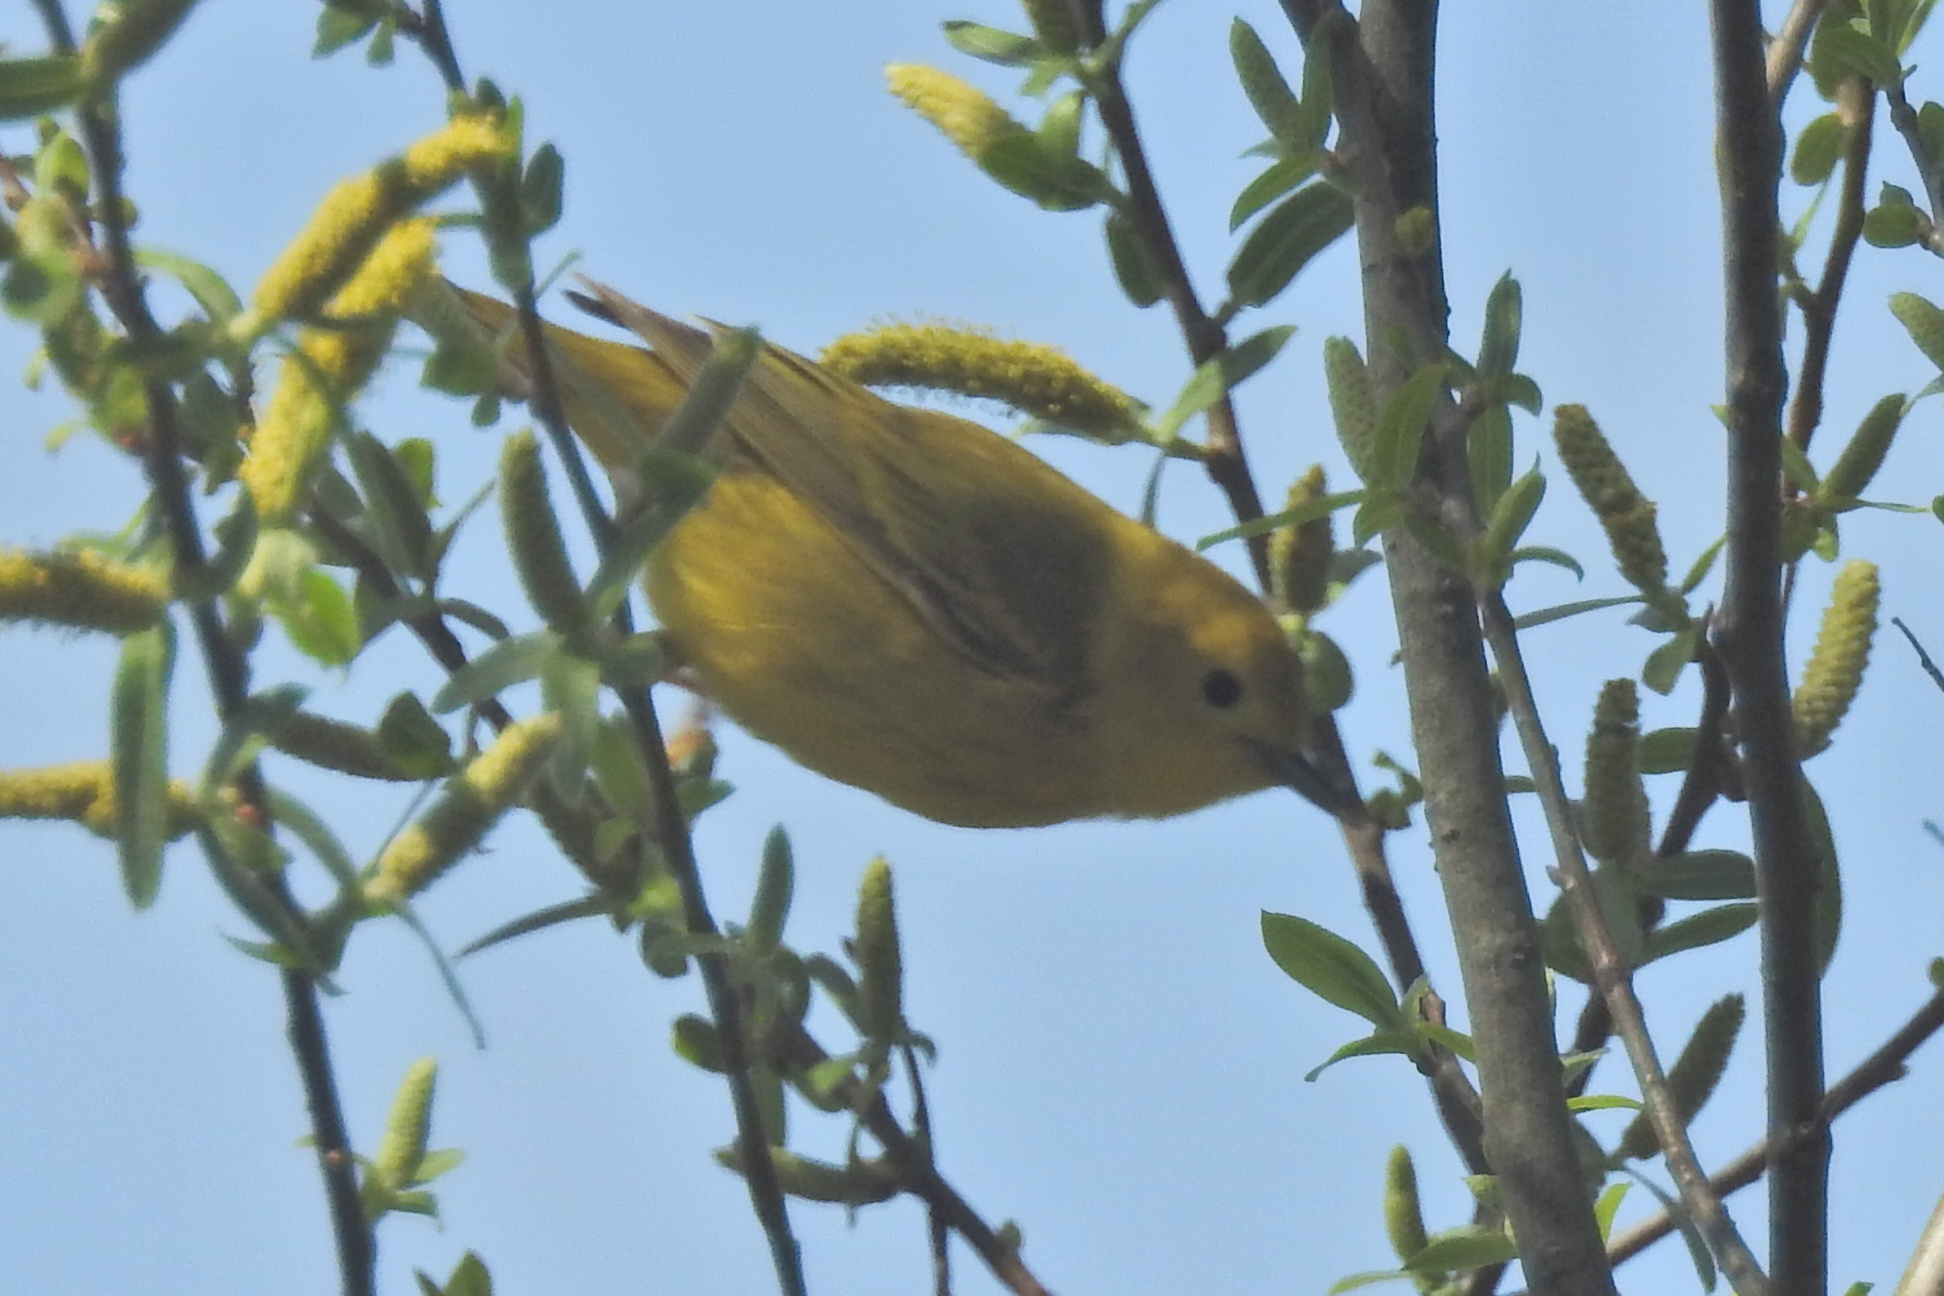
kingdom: Animalia
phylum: Chordata
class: Aves
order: Passeriformes
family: Parulidae
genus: Setophaga
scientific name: Setophaga petechia
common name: Yellow warbler
